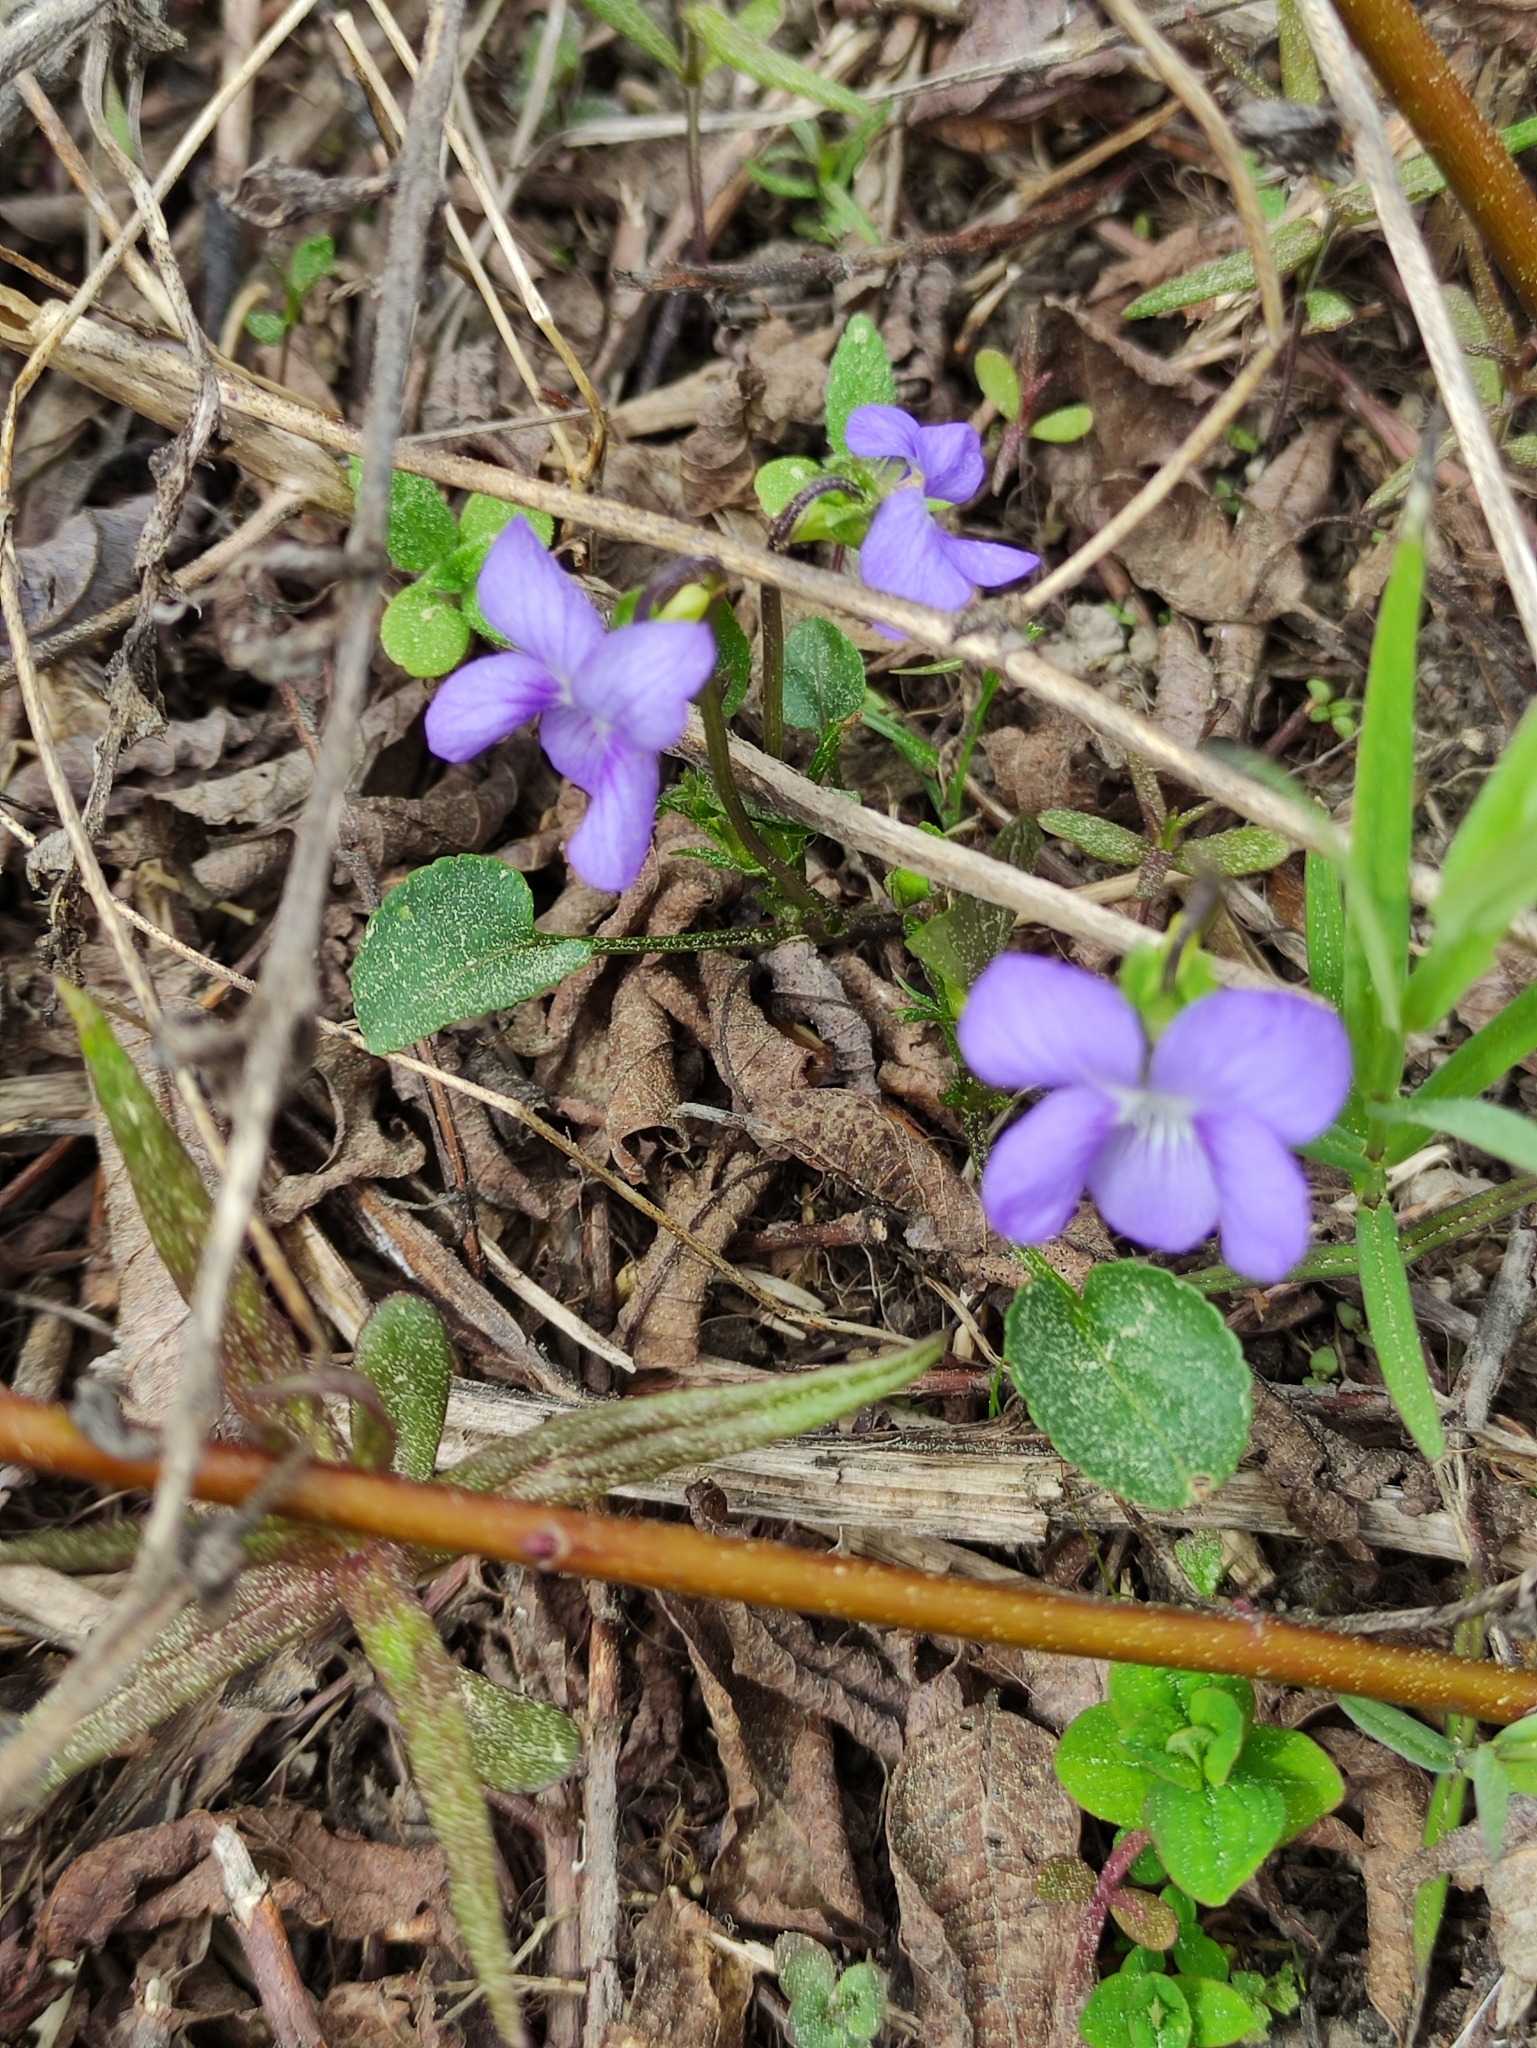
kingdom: Plantae
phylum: Tracheophyta
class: Magnoliopsida
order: Malpighiales
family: Violaceae
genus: Viola
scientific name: Viola canina
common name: Heath dog-violet
